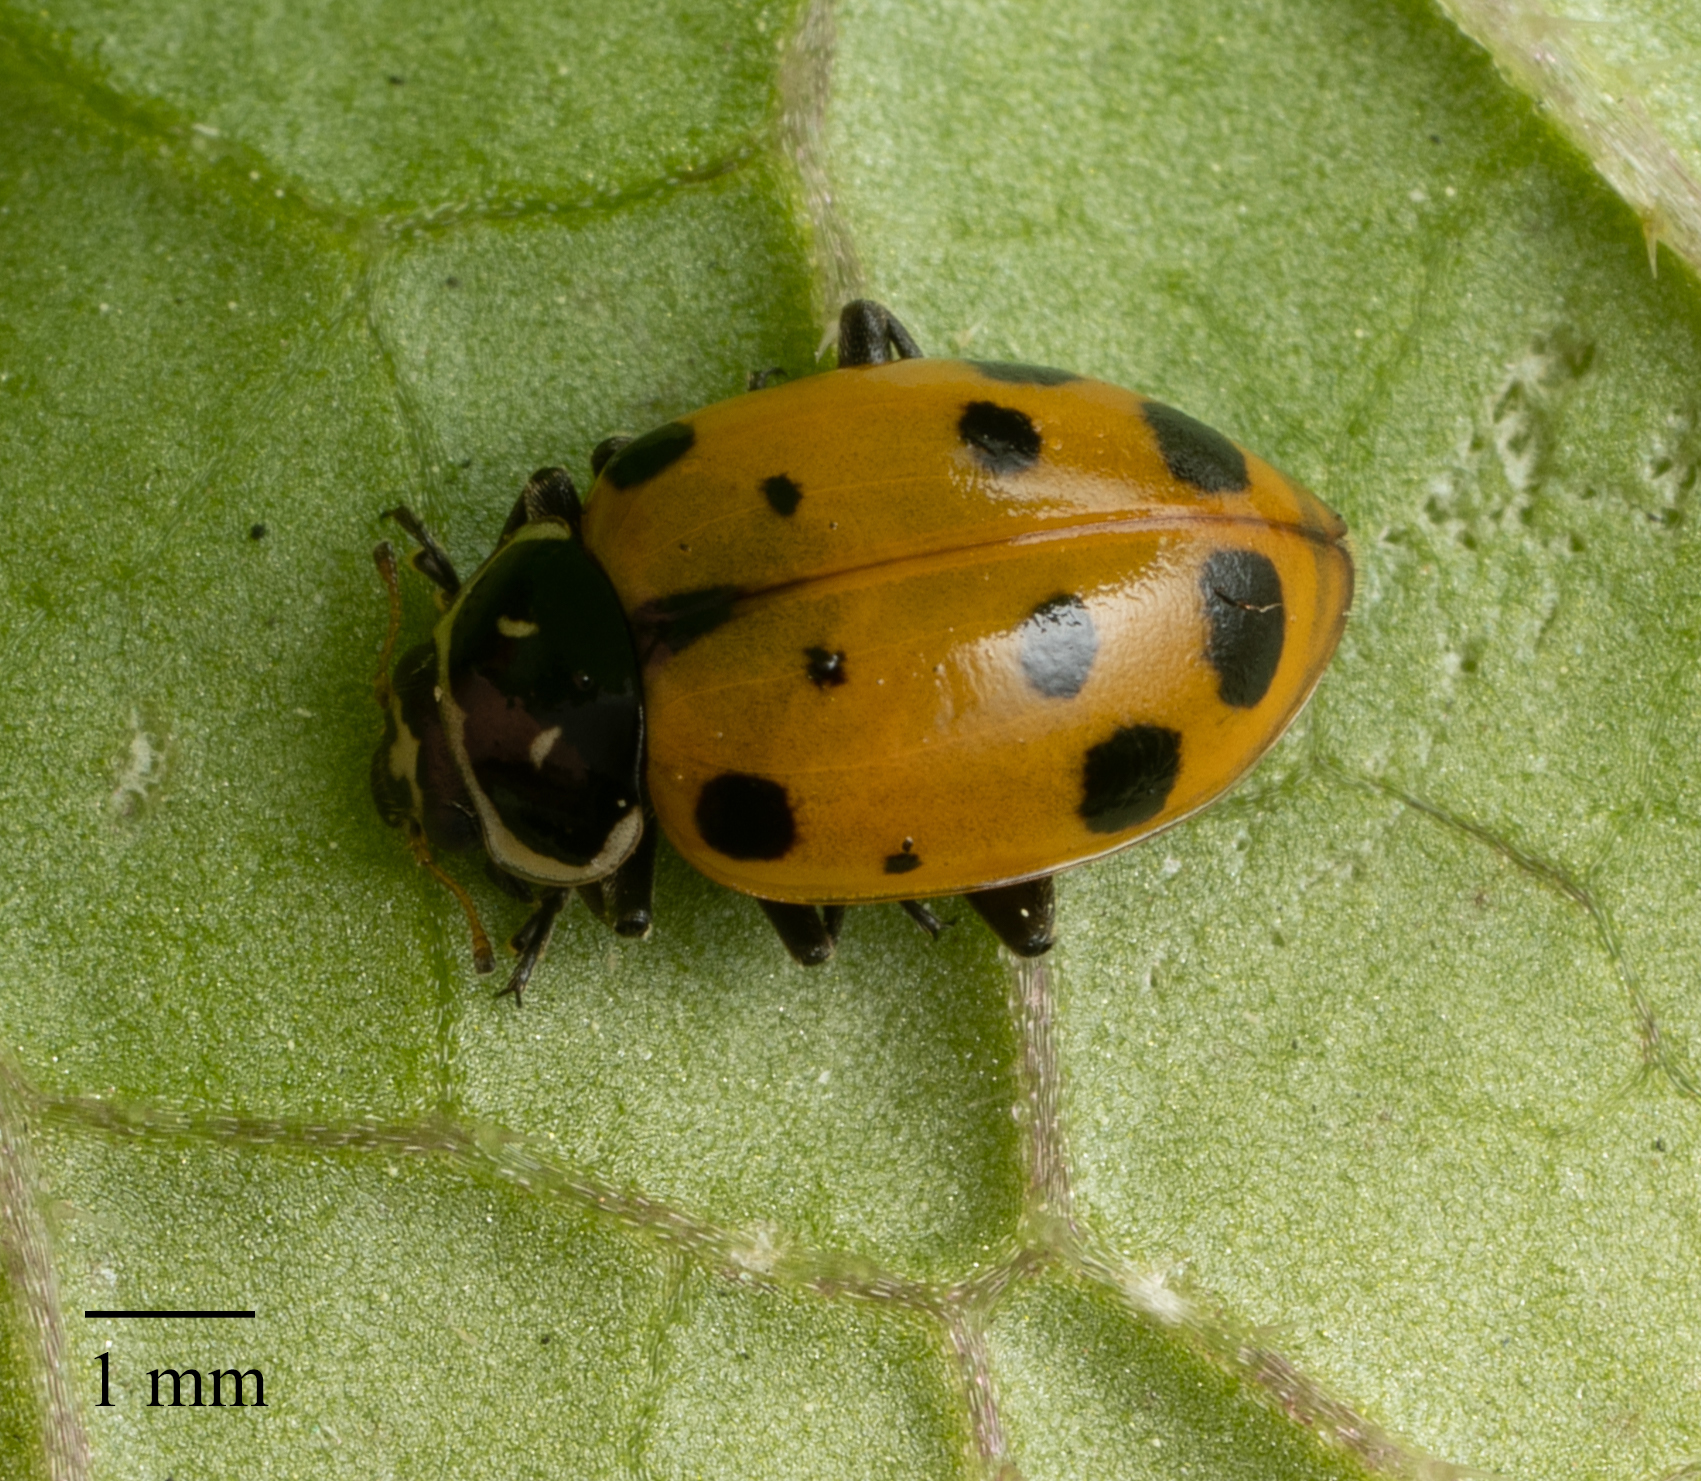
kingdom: Animalia
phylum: Arthropoda
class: Insecta
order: Coleoptera
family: Coccinellidae
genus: Hippodamia
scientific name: Hippodamia convergens
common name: Convergent lady beetle
